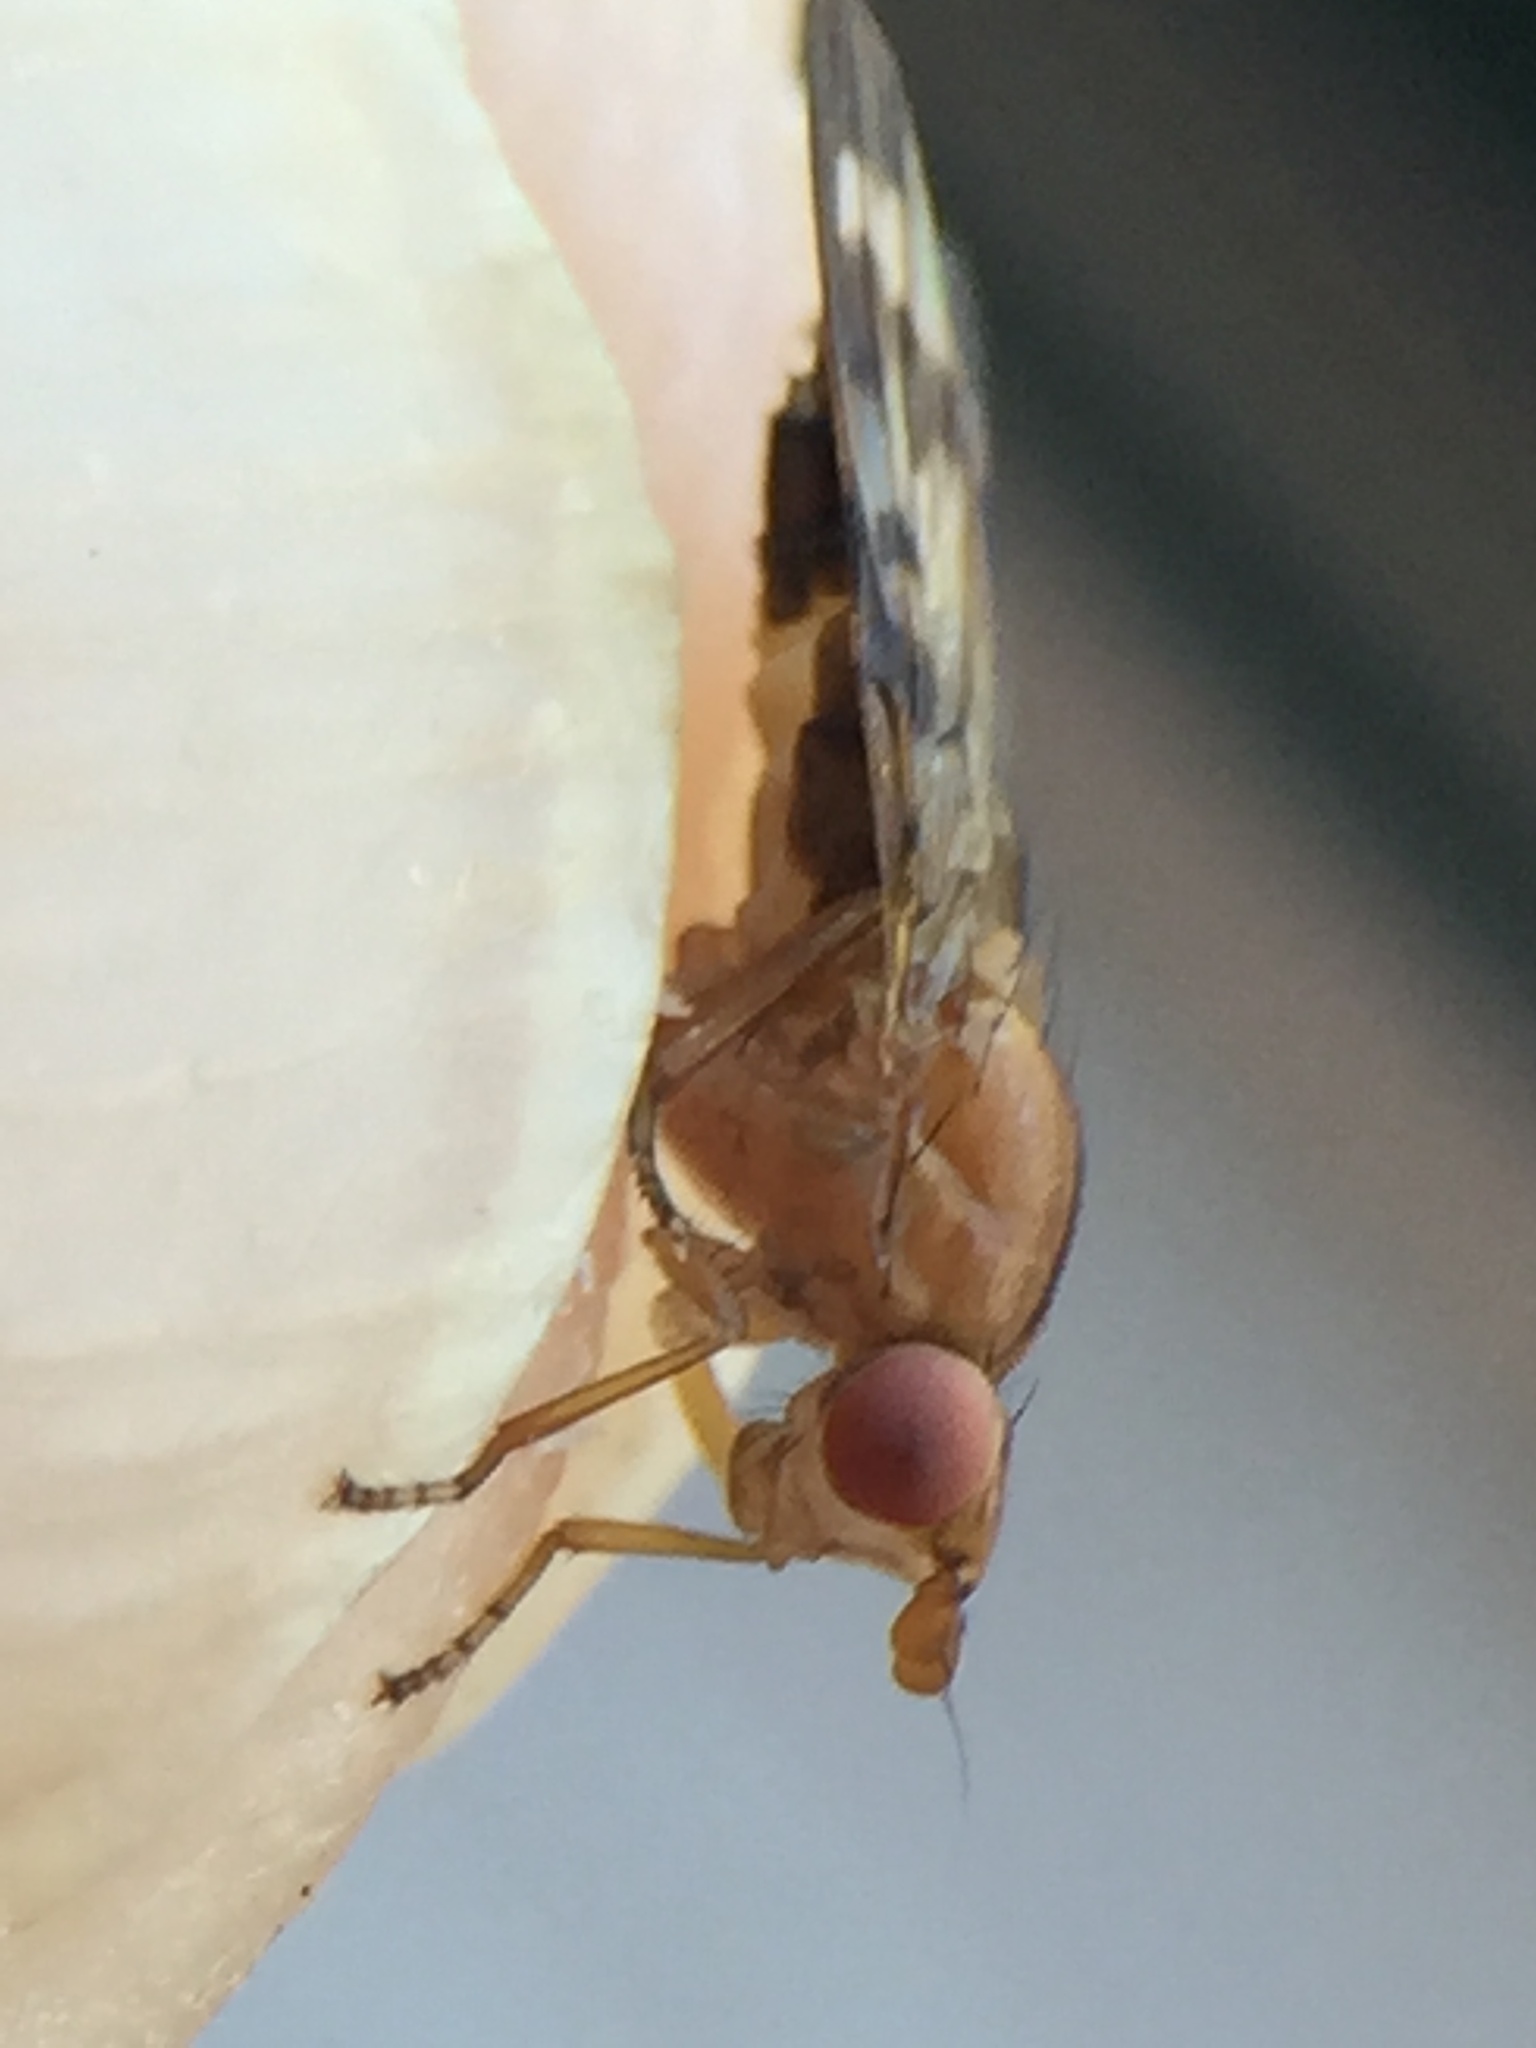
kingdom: Animalia
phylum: Arthropoda
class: Insecta
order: Diptera
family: Sciomyzidae
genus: Prosochaeta
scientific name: Prosochaeta prima
